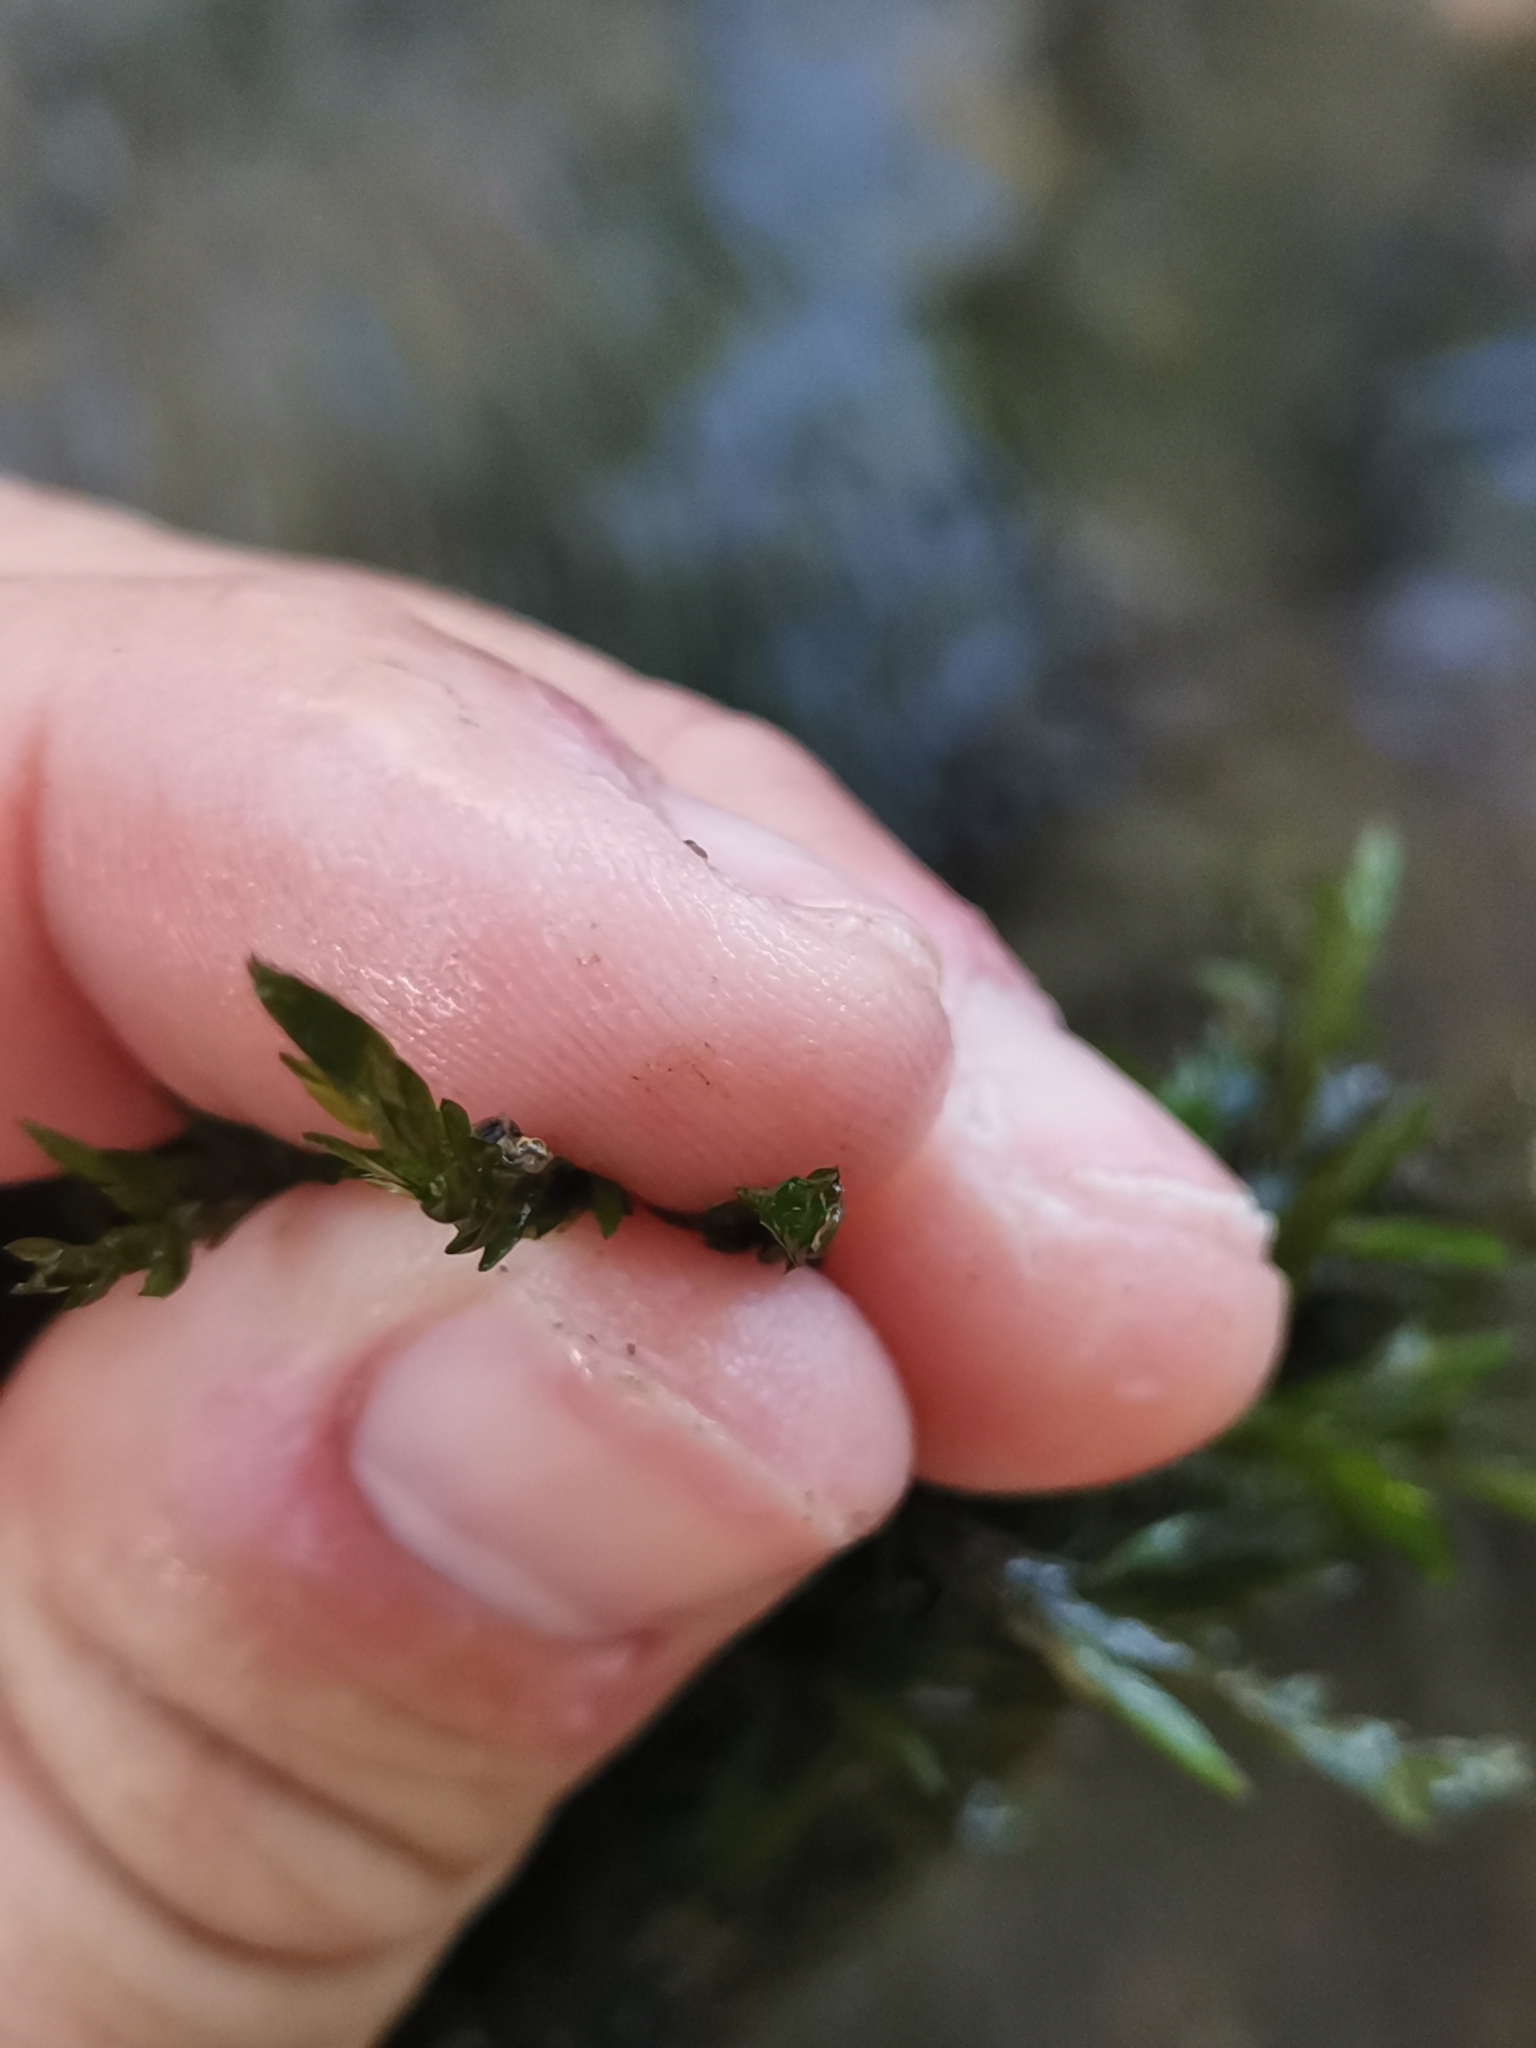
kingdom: Plantae
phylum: Bryophyta
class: Bryopsida
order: Hypnales
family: Fontinalaceae
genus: Fontinalis
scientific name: Fontinalis antipyretica
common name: Greater water-moss
